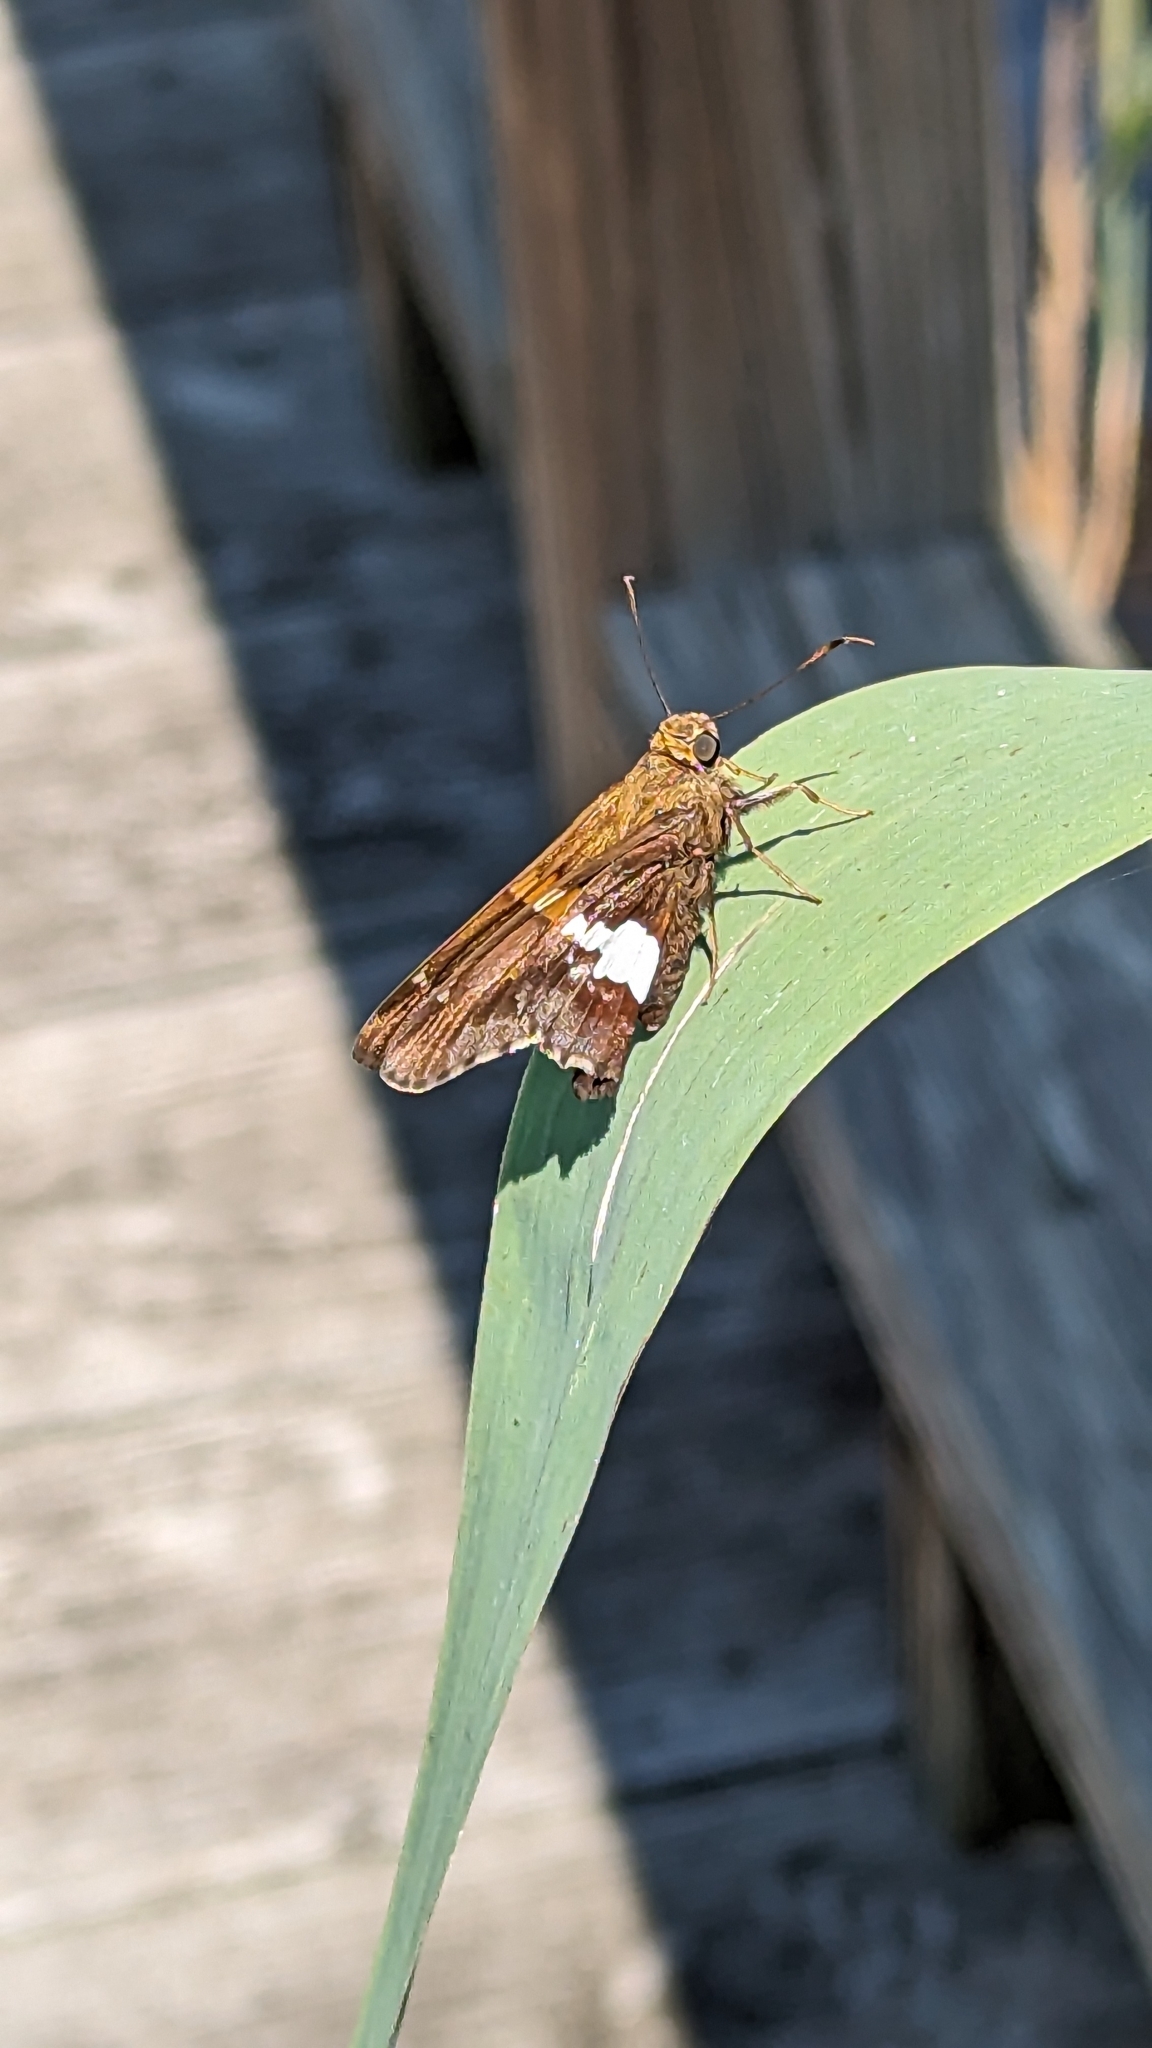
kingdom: Animalia
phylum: Arthropoda
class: Insecta
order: Lepidoptera
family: Hesperiidae
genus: Epargyreus
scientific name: Epargyreus clarus
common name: Silver-spotted skipper
